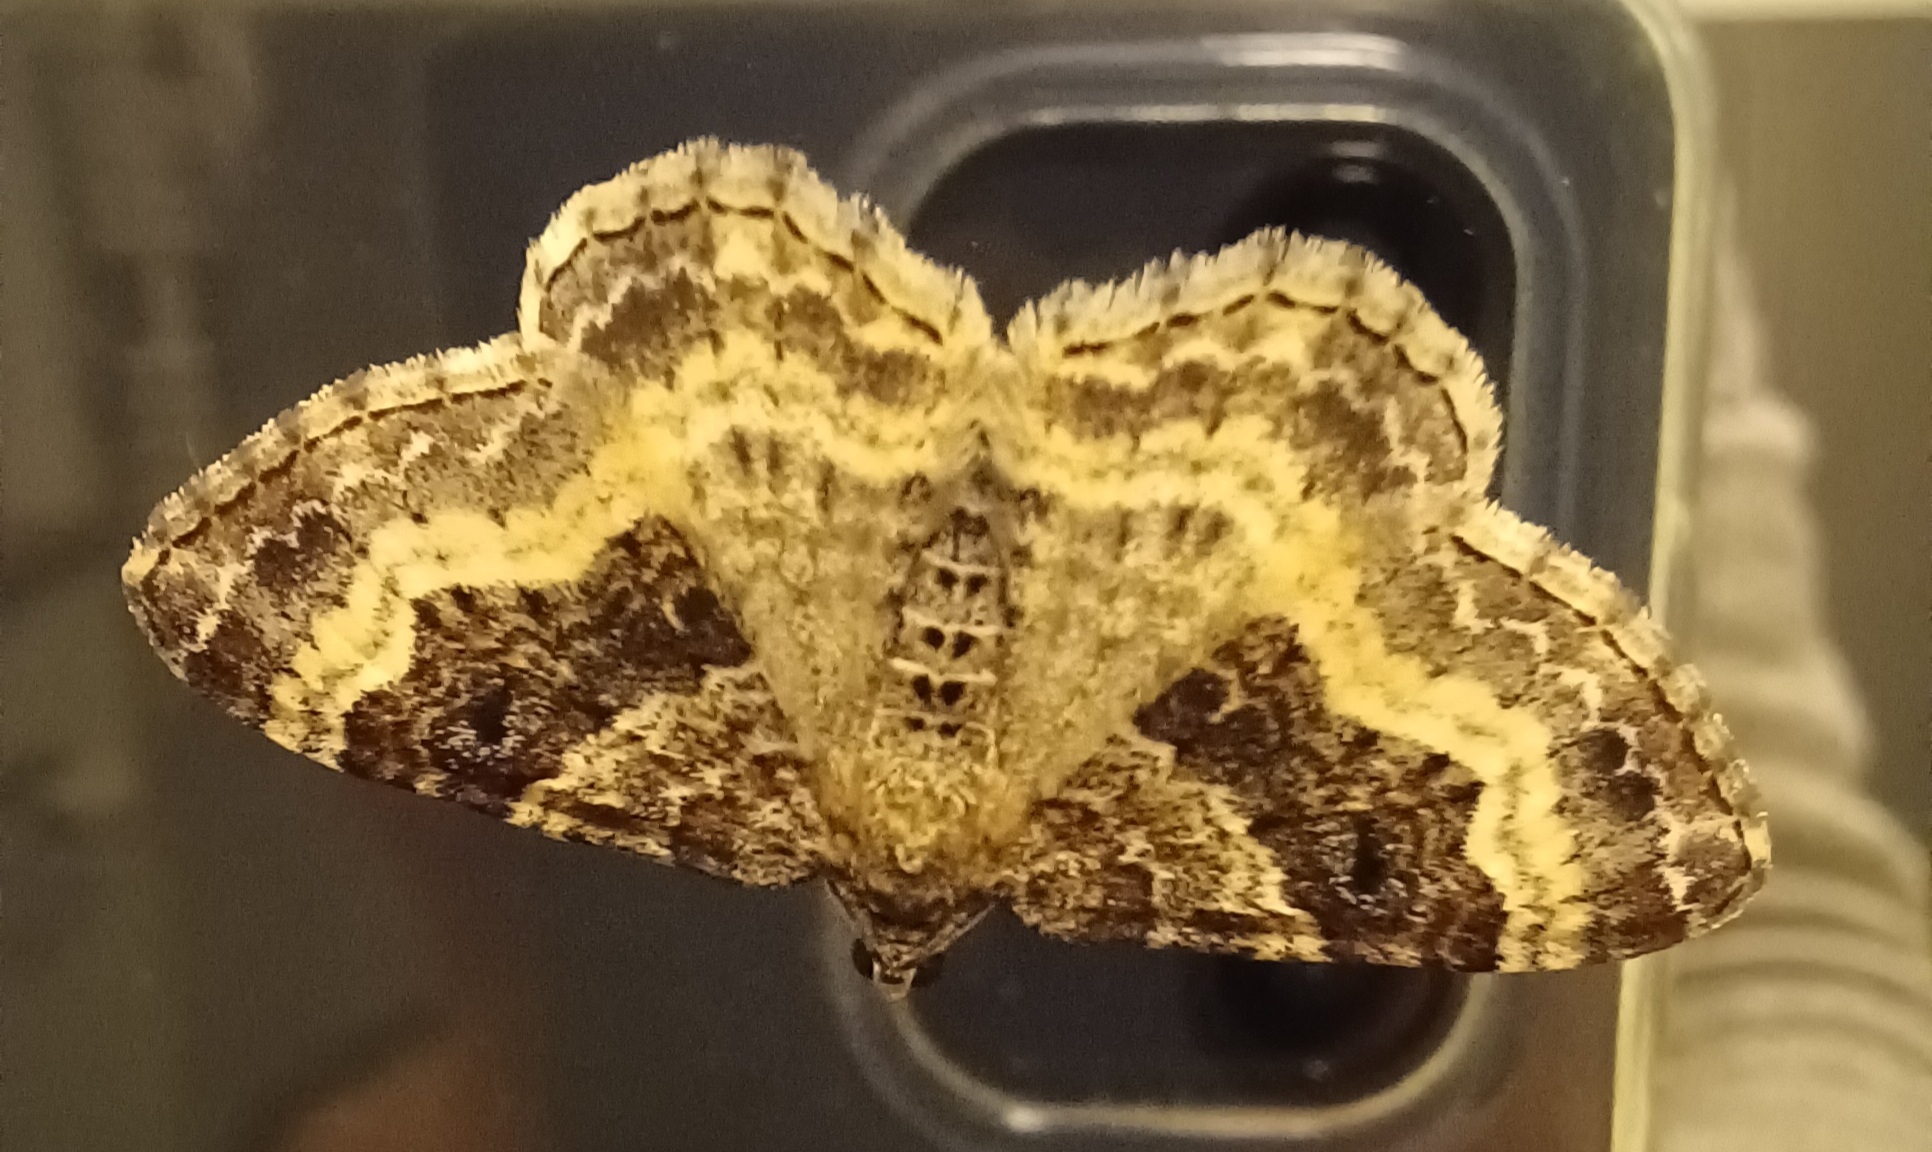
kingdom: Animalia
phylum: Arthropoda
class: Insecta
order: Lepidoptera
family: Geometridae
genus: Epirrhoe
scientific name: Epirrhoe alternata
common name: Common carpet
